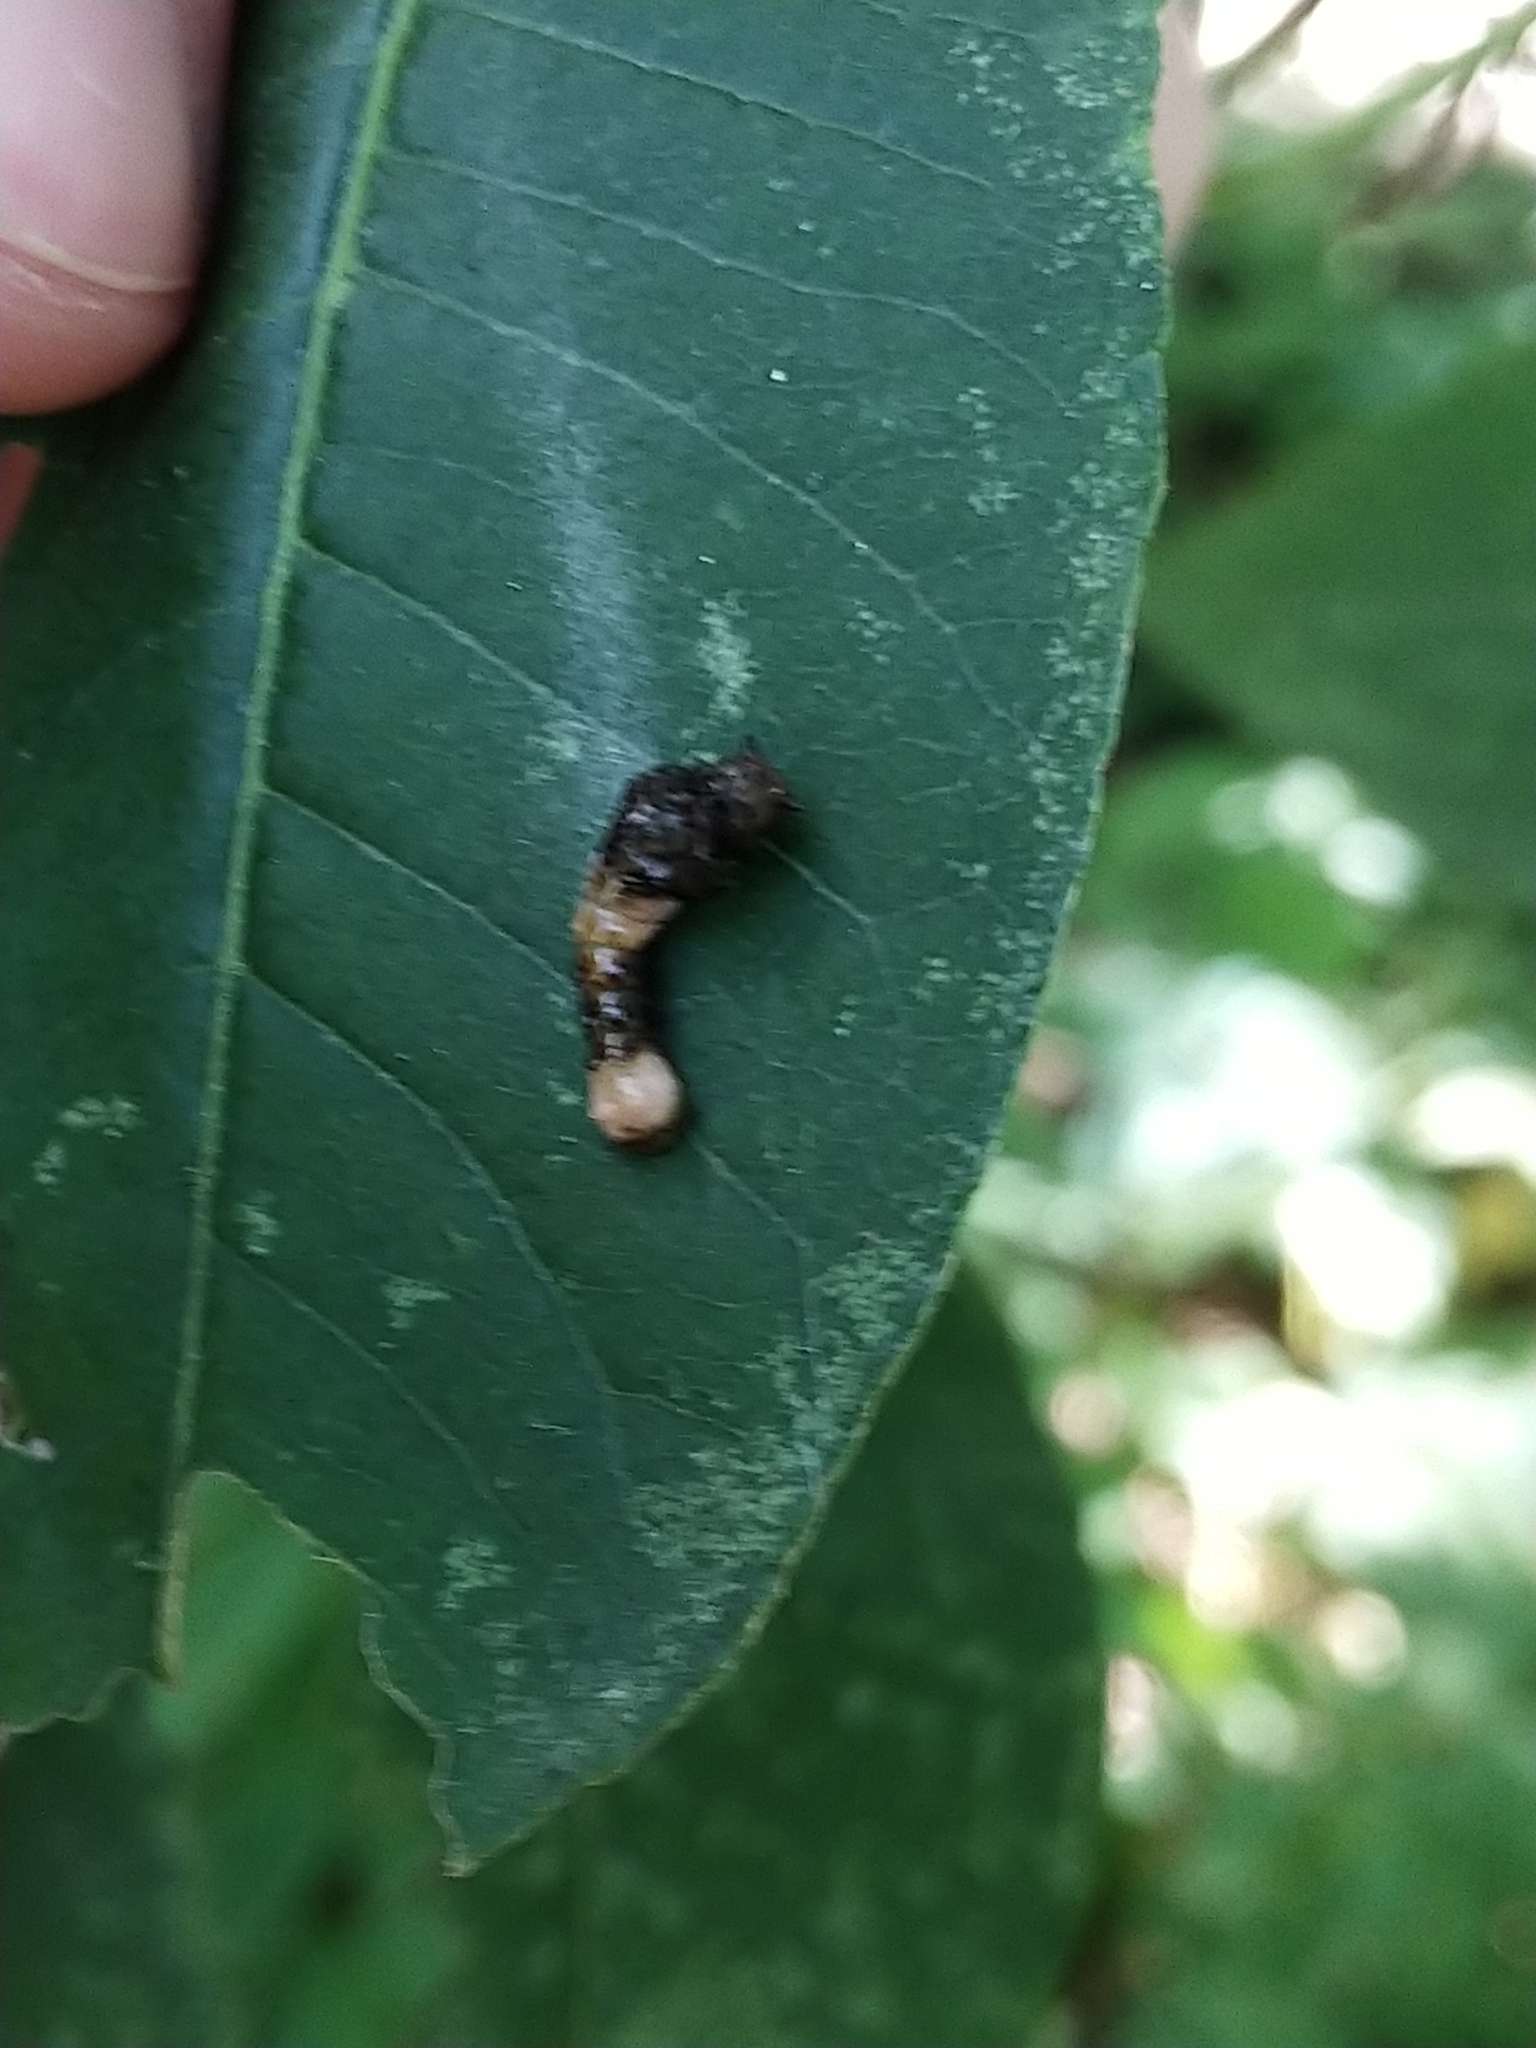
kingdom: Animalia
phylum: Arthropoda
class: Insecta
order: Lepidoptera
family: Papilionidae
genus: Papilio
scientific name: Papilio cresphontes
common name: Giant swallowtail
